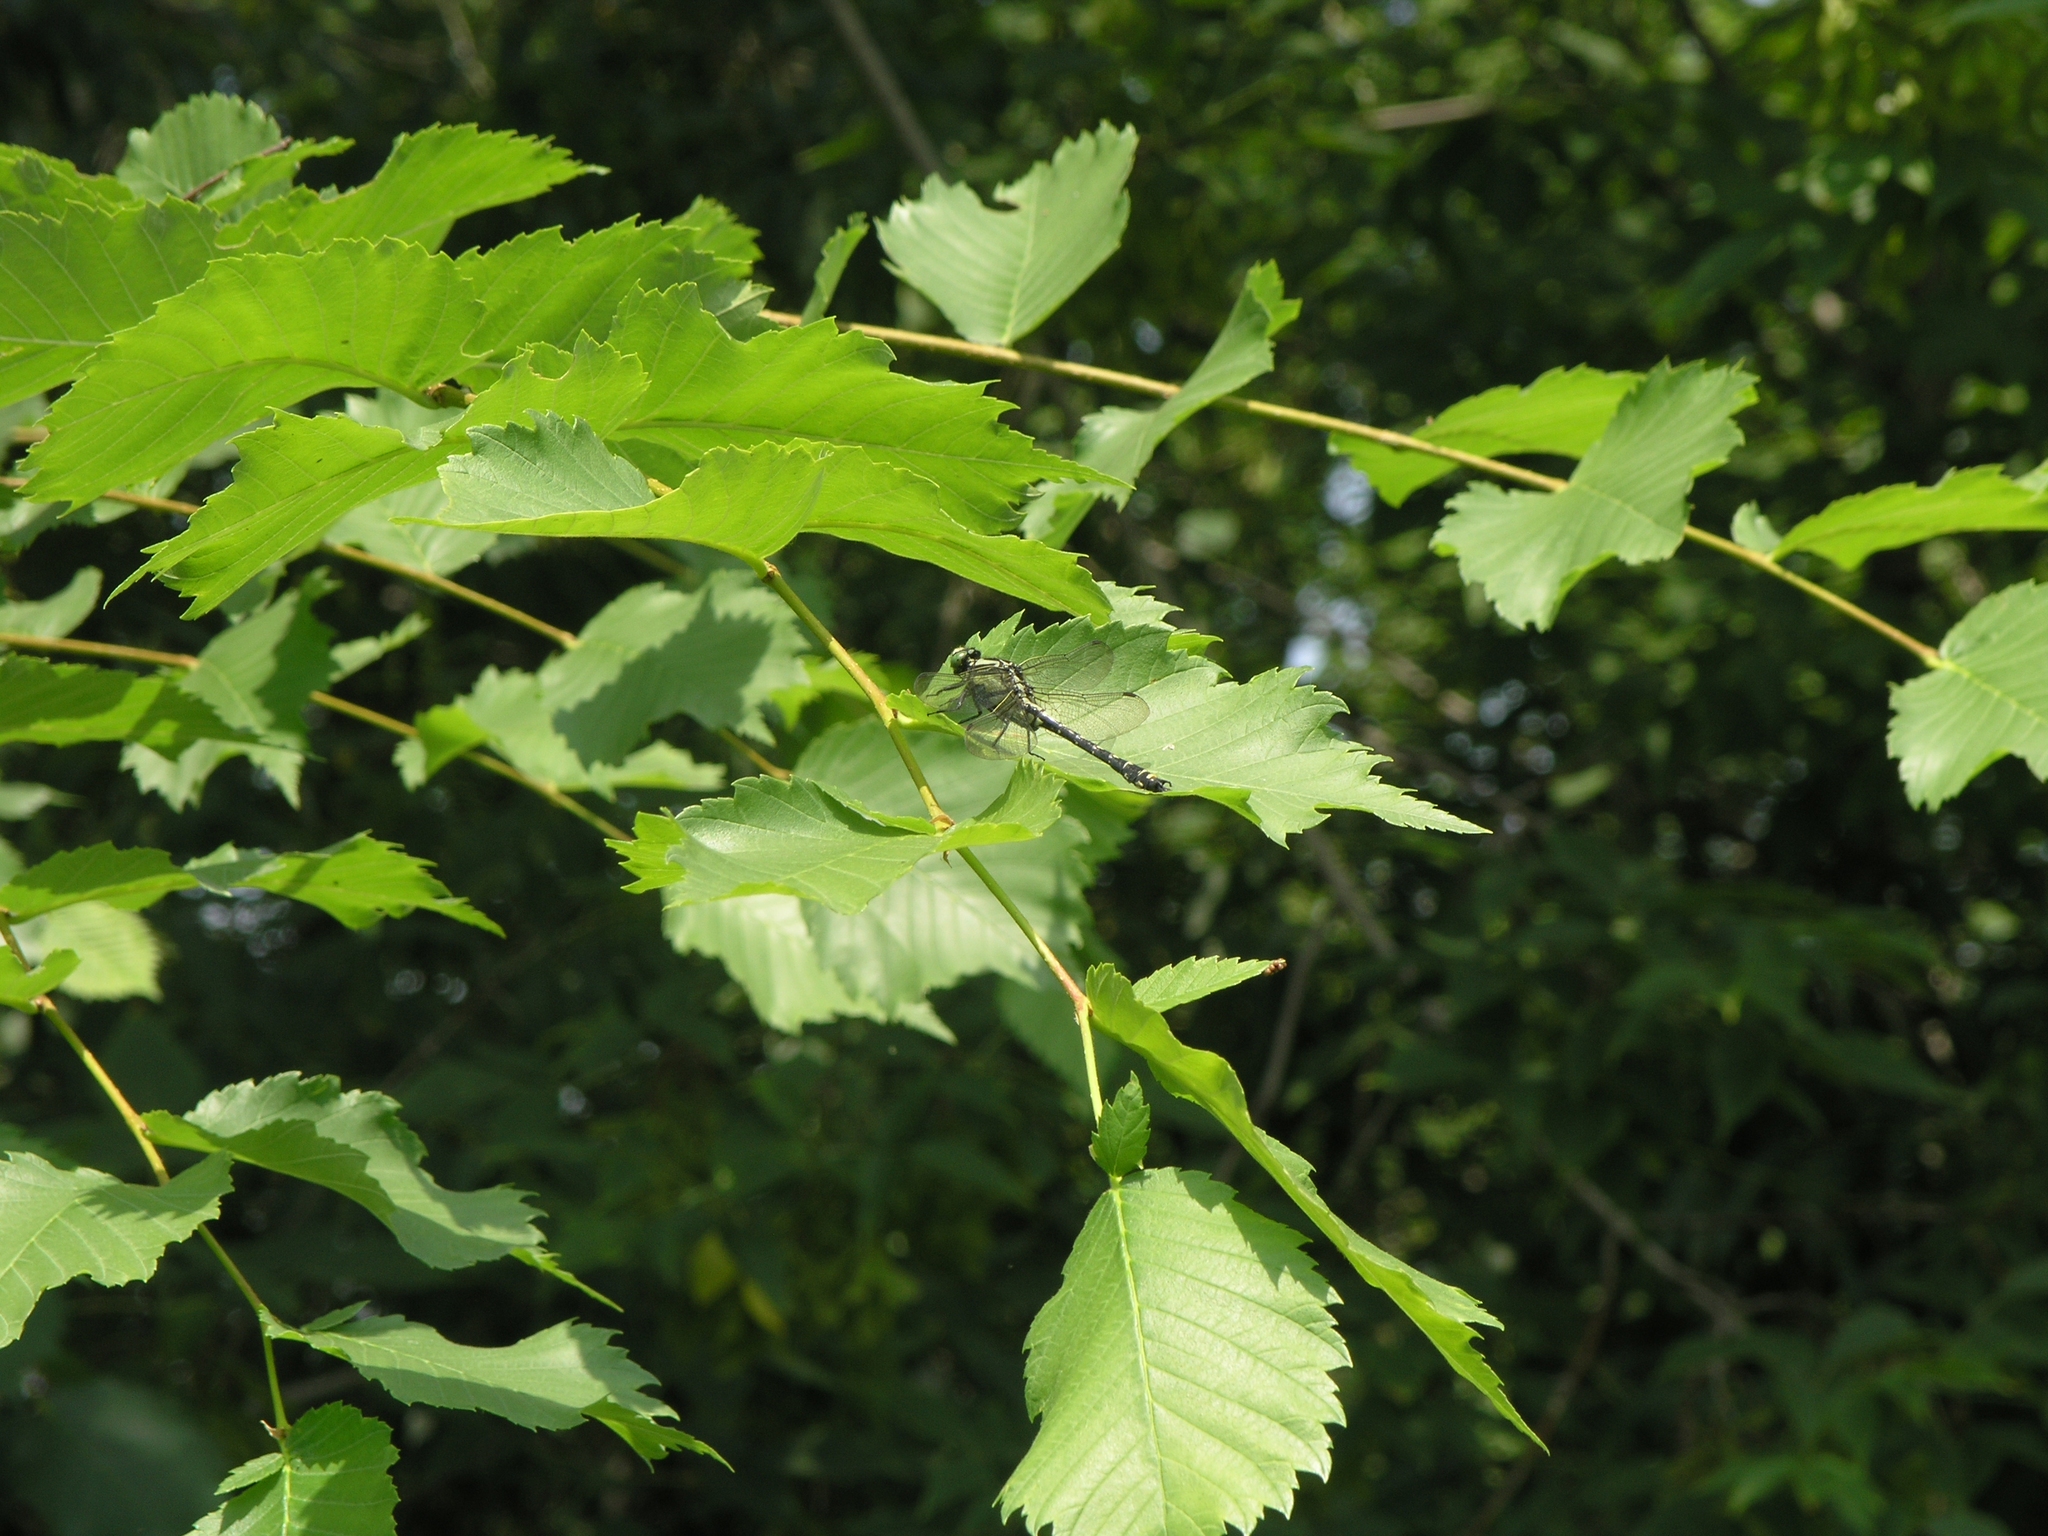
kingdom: Animalia
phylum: Arthropoda
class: Insecta
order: Odonata
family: Gomphidae
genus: Shaogomphus
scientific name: Shaogomphus postocularis
